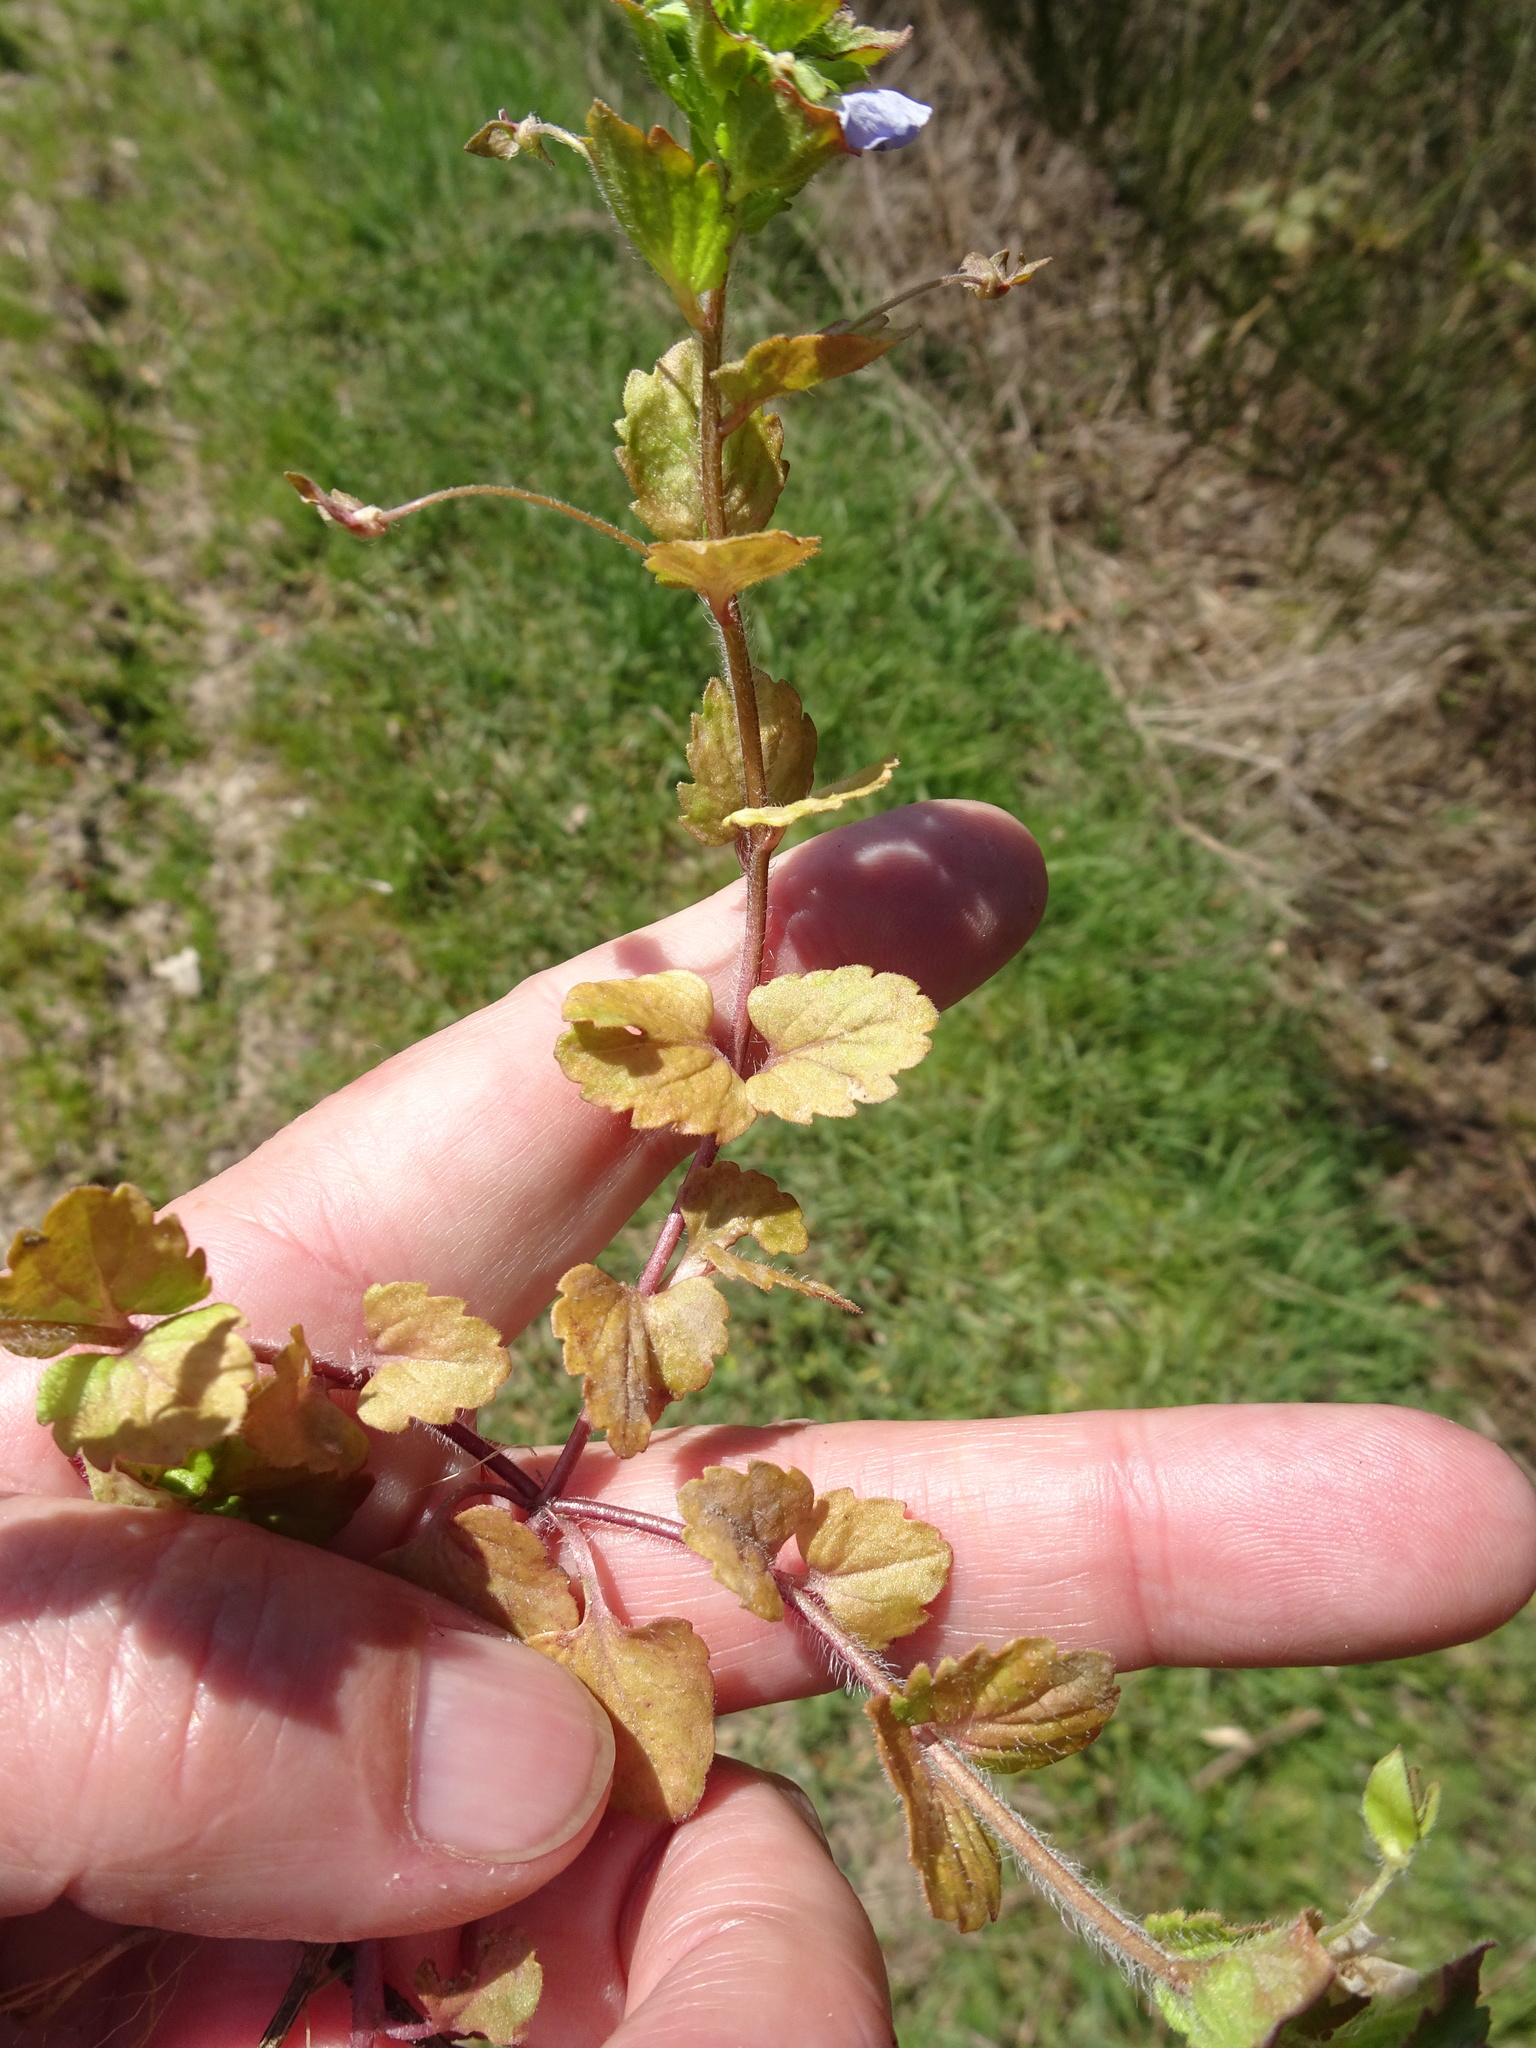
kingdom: Plantae
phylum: Tracheophyta
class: Magnoliopsida
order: Lamiales
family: Plantaginaceae
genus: Veronica
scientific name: Veronica persica
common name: Common field-speedwell
